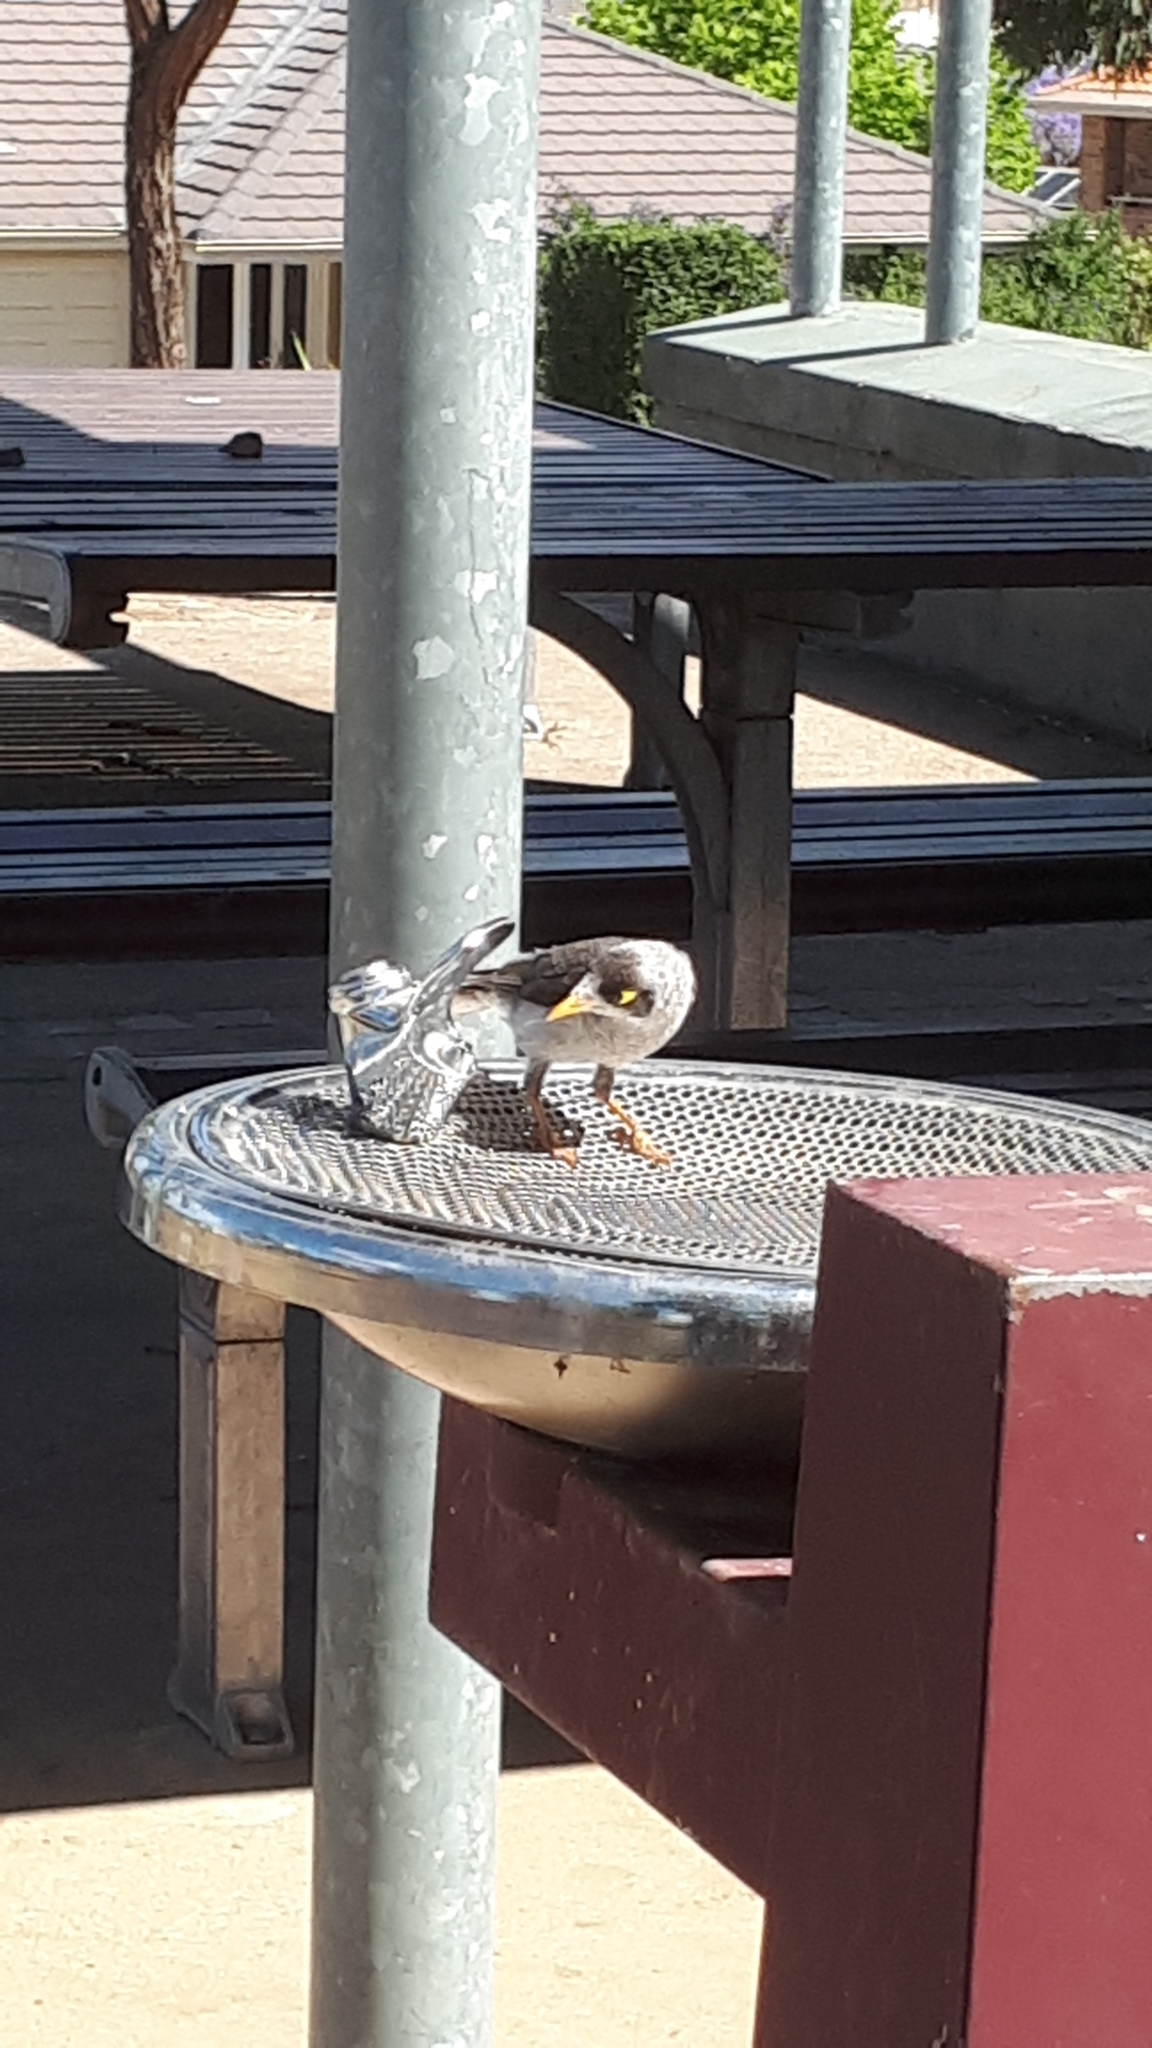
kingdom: Animalia
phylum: Chordata
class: Aves
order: Passeriformes
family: Meliphagidae
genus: Manorina
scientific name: Manorina melanocephala
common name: Noisy miner
